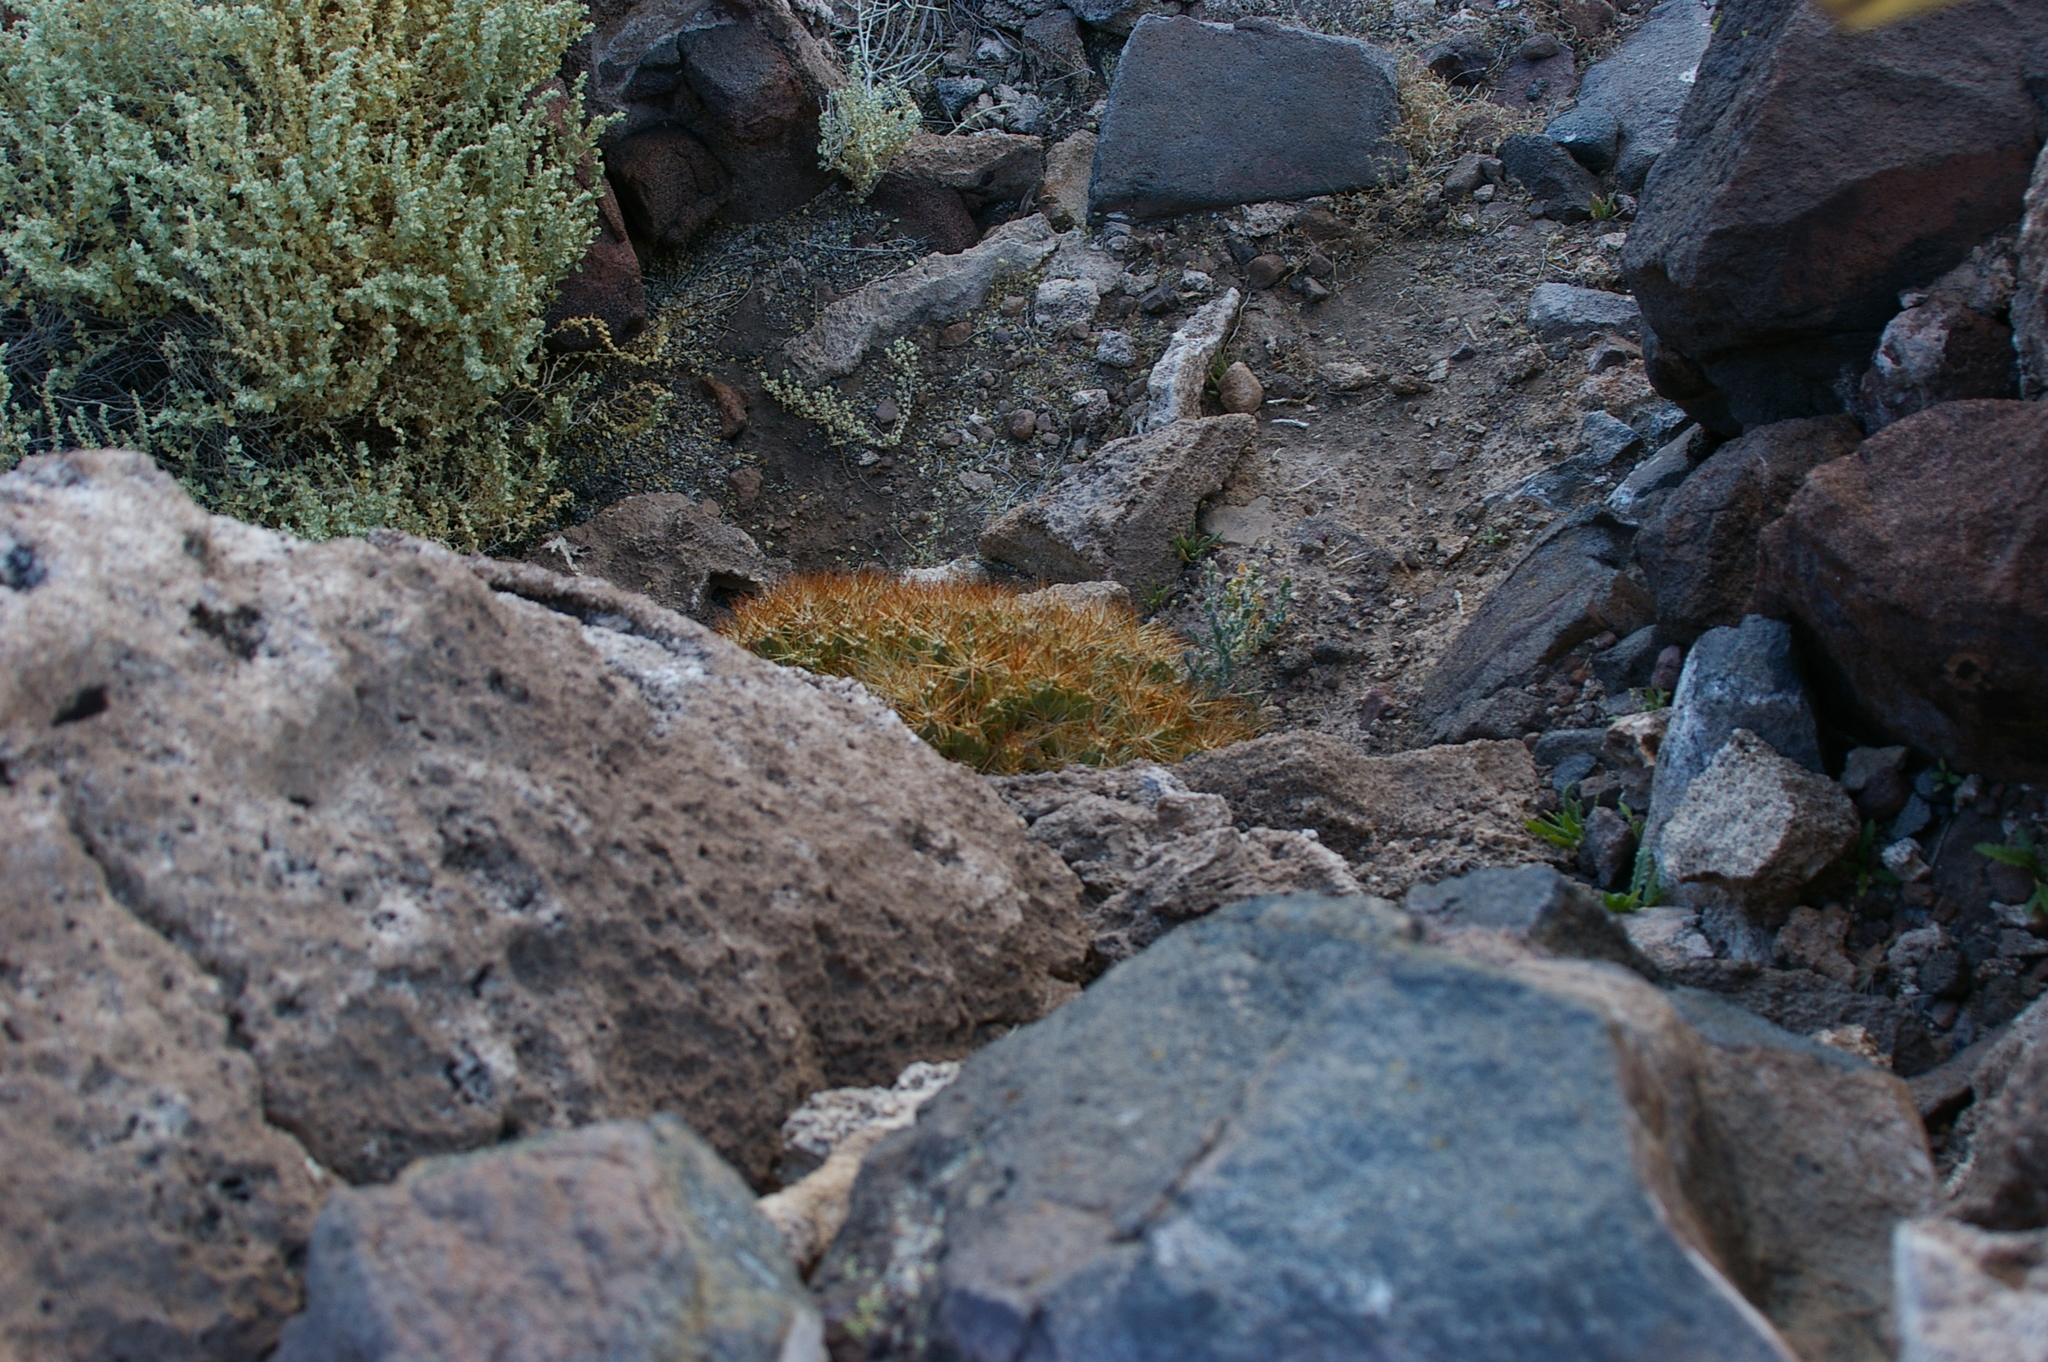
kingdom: Plantae
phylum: Tracheophyta
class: Magnoliopsida
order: Caryophyllales
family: Cactaceae
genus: Cumulopuntia
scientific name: Cumulopuntia boliviana
